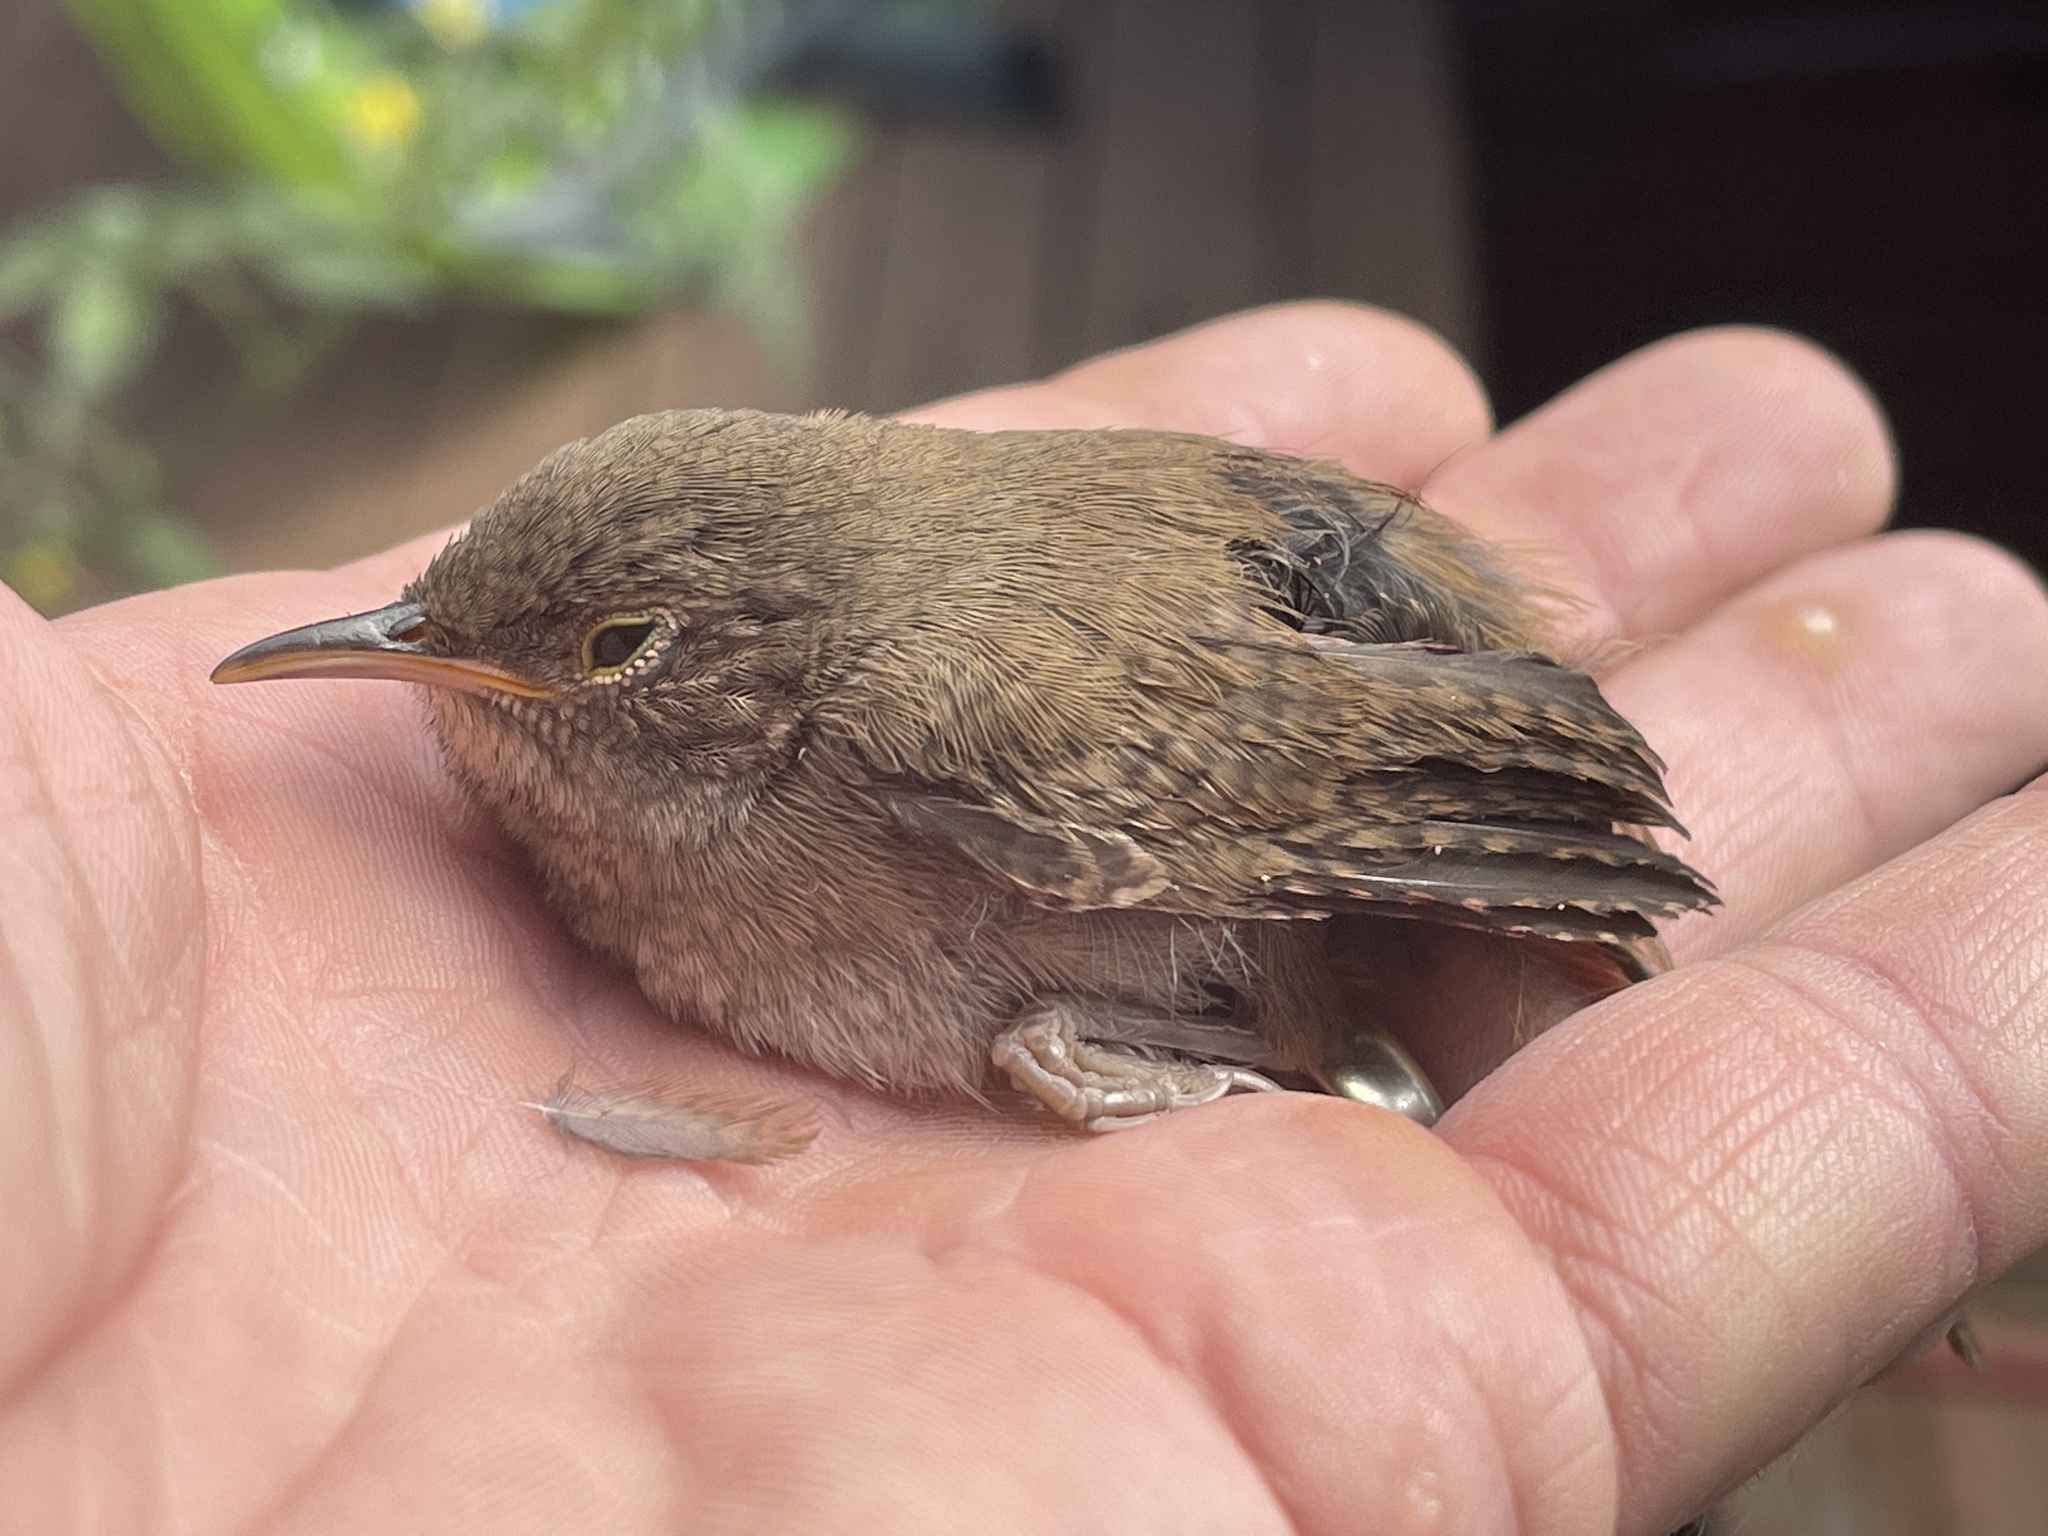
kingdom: Animalia
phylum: Chordata
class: Aves
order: Passeriformes
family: Troglodytidae
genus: Troglodytes
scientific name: Troglodytes aedon
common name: House wren
